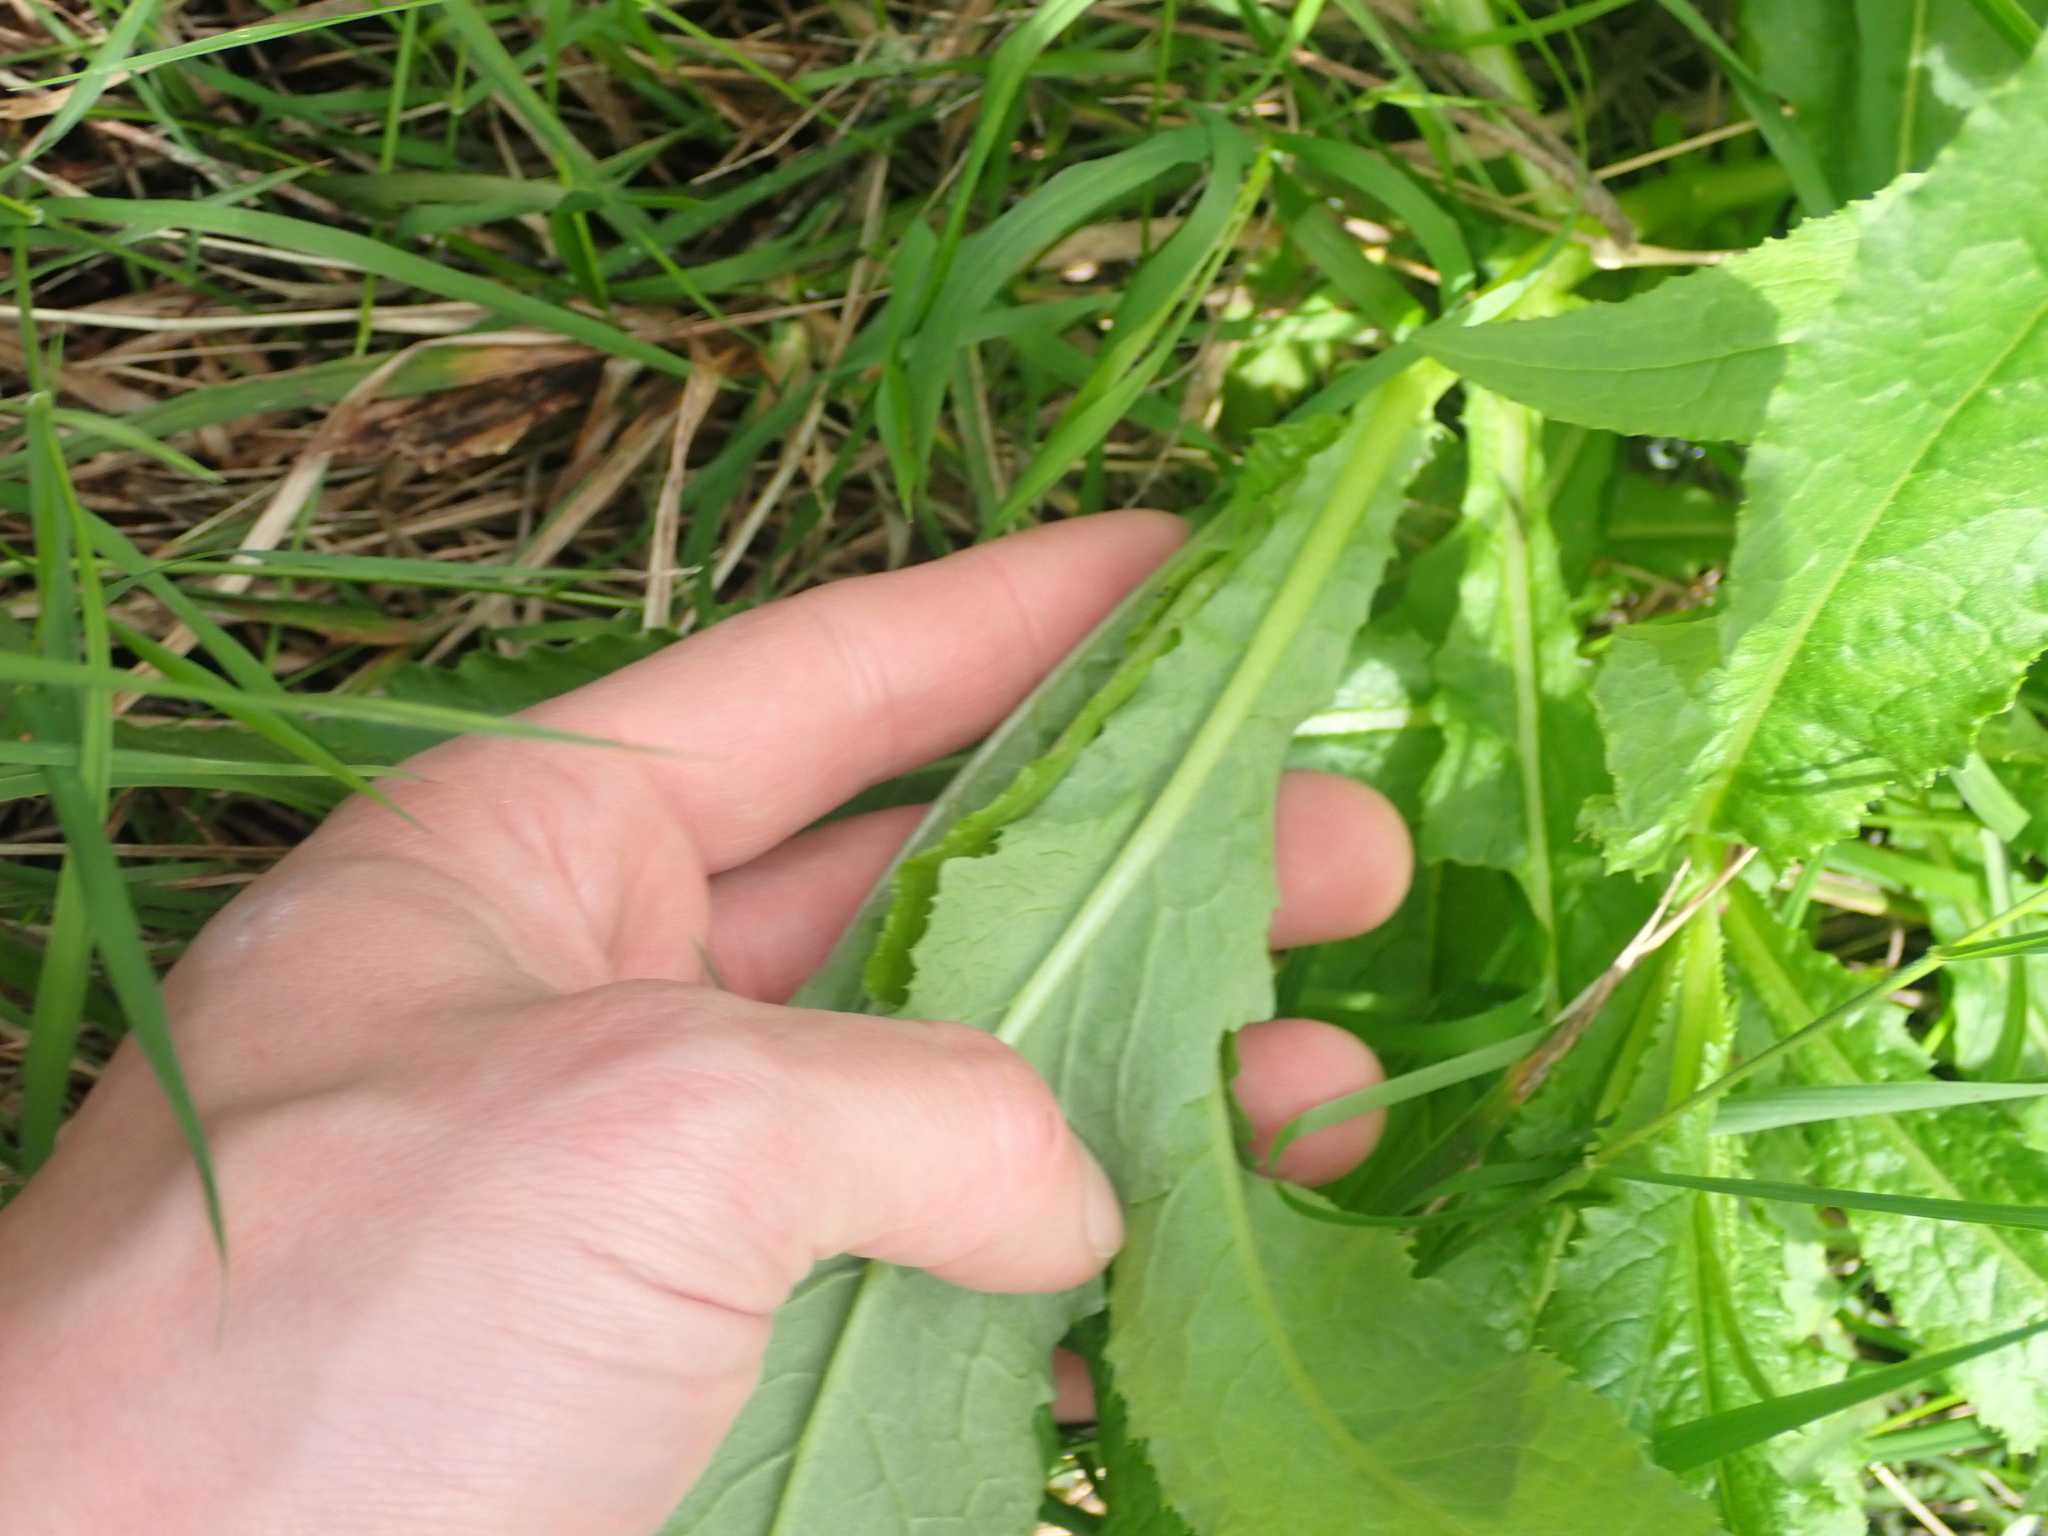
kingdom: Plantae
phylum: Tracheophyta
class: Magnoliopsida
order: Asterales
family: Asteraceae
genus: Senecio
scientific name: Senecio minimus
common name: Toothed fireweed
